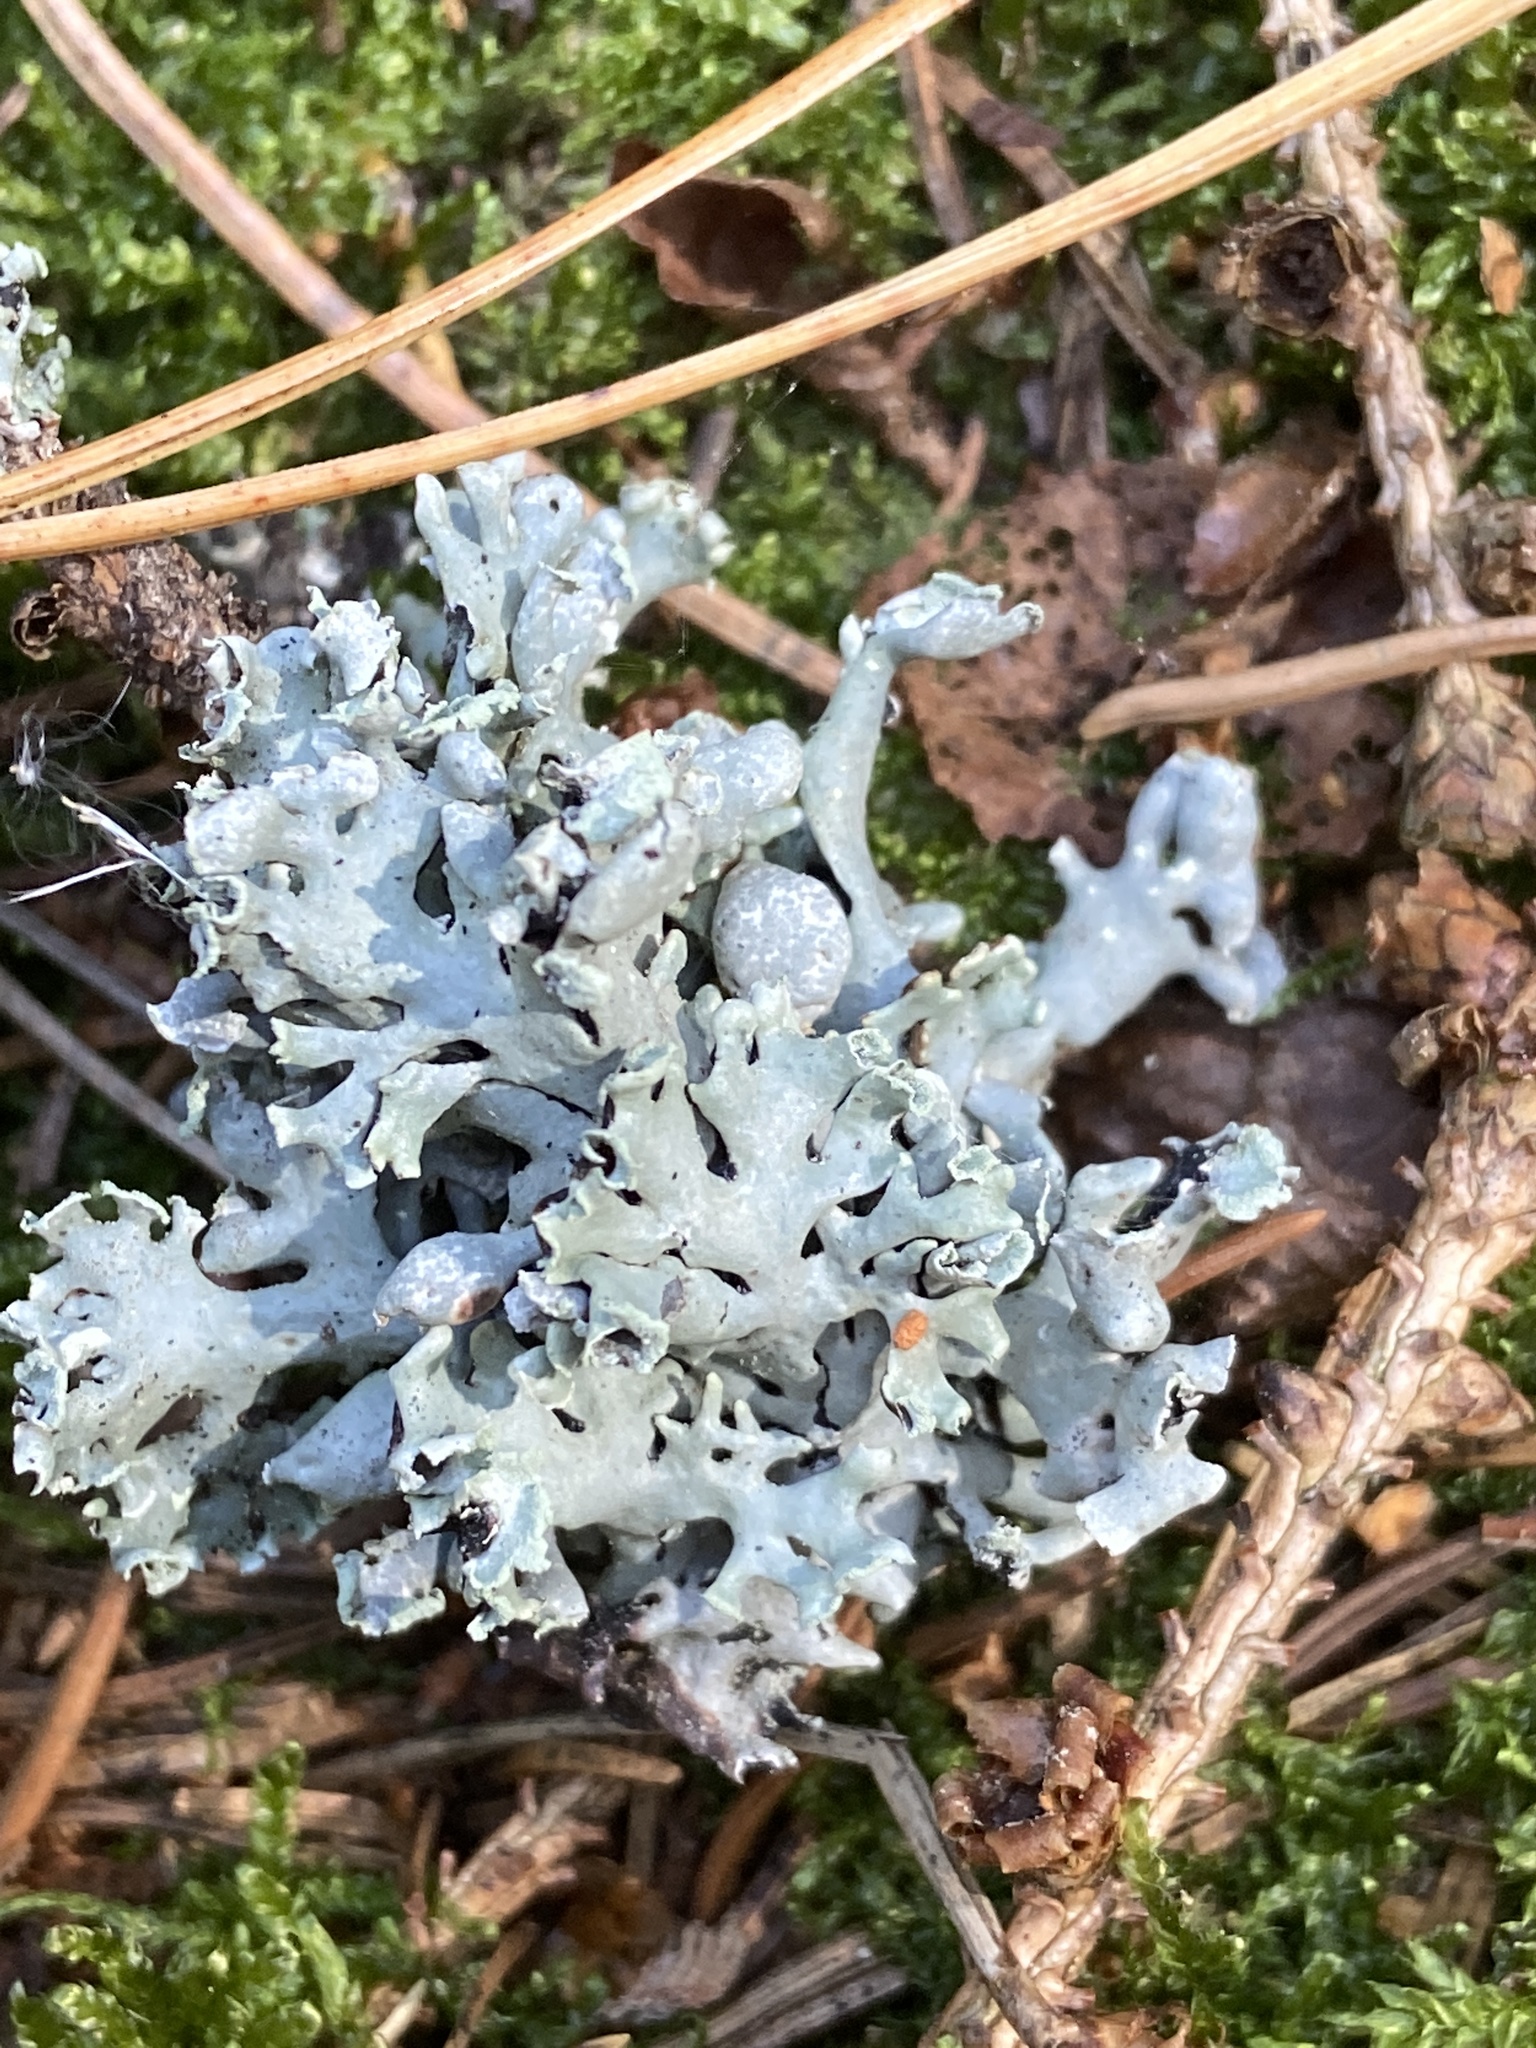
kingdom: Fungi
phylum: Ascomycota
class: Lecanoromycetes
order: Lecanorales
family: Parmeliaceae
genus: Hypogymnia
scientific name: Hypogymnia physodes
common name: Dark crottle
